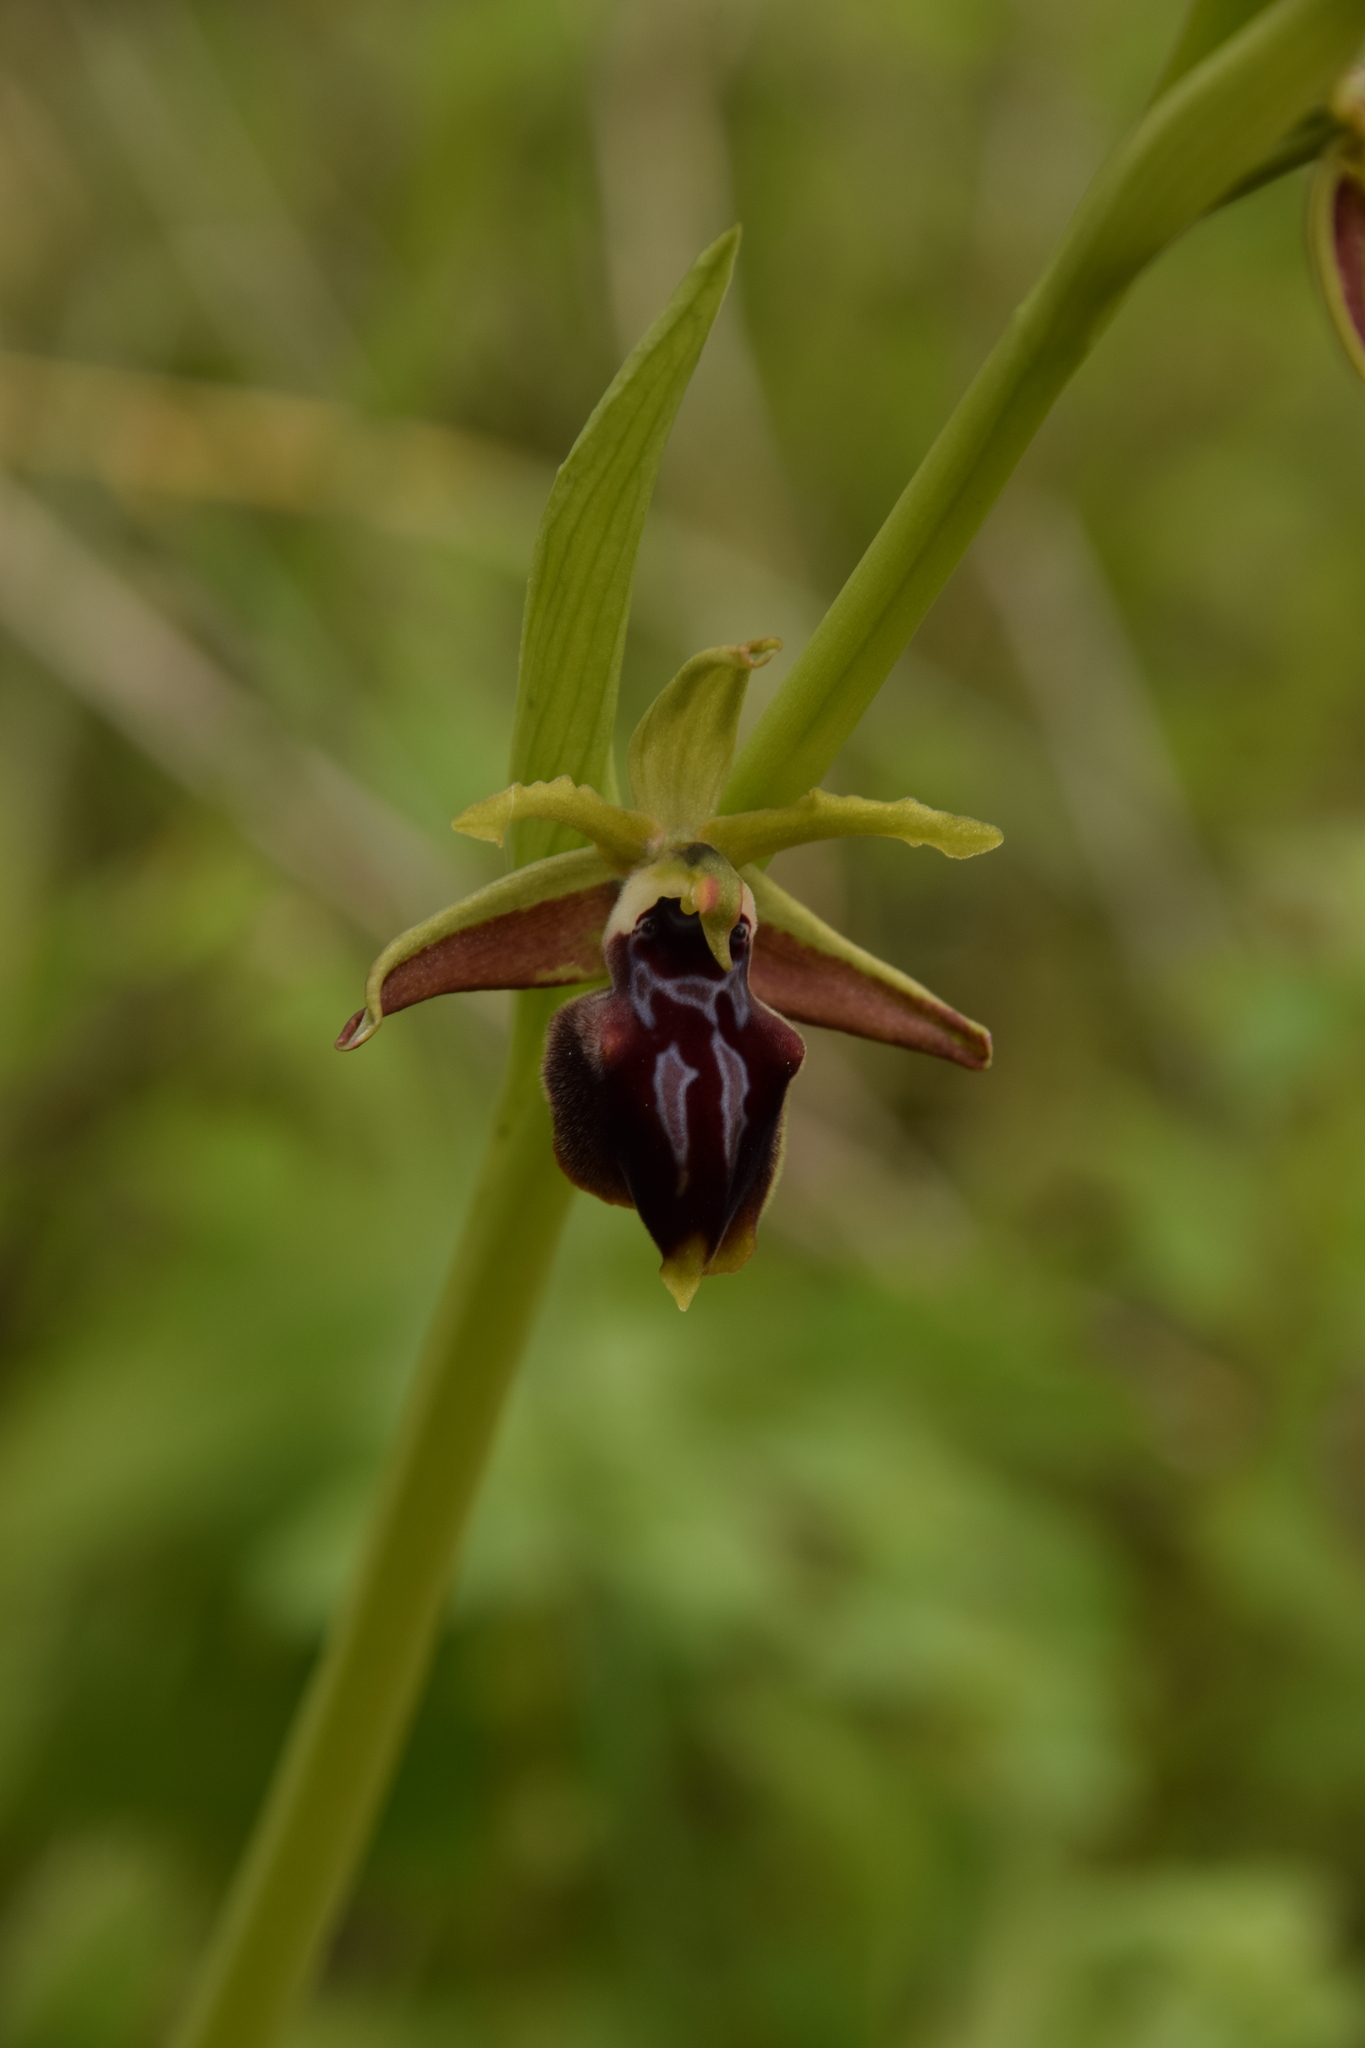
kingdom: Plantae
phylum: Tracheophyta
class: Liliopsida
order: Asparagales
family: Orchidaceae
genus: Ophrys
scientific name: Ophrys sphegodes
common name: Early spider-orchid
